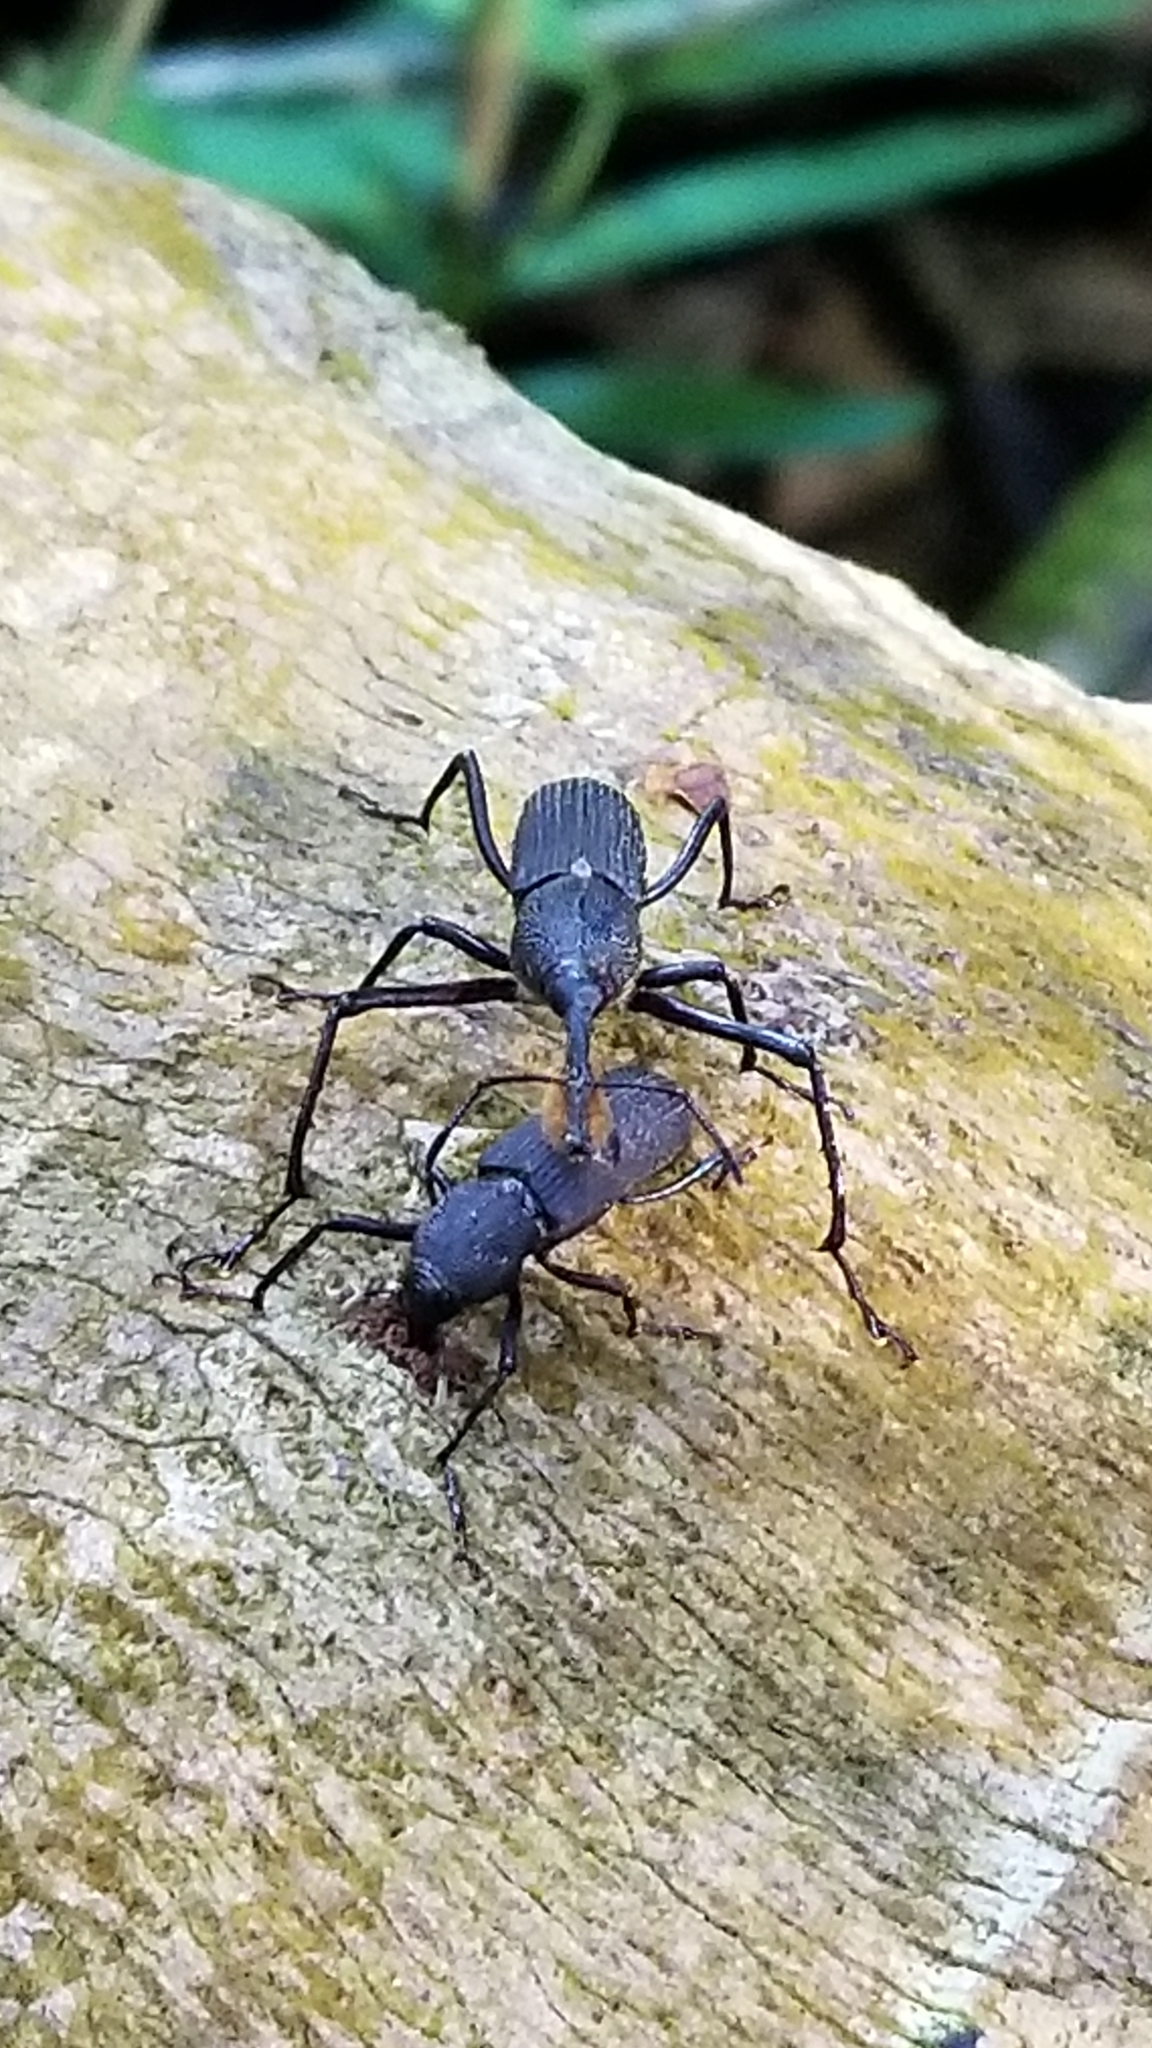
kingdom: Animalia
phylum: Arthropoda
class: Insecta
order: Coleoptera
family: Dryophthoridae
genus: Rhinostomus
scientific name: Rhinostomus barbirostris
